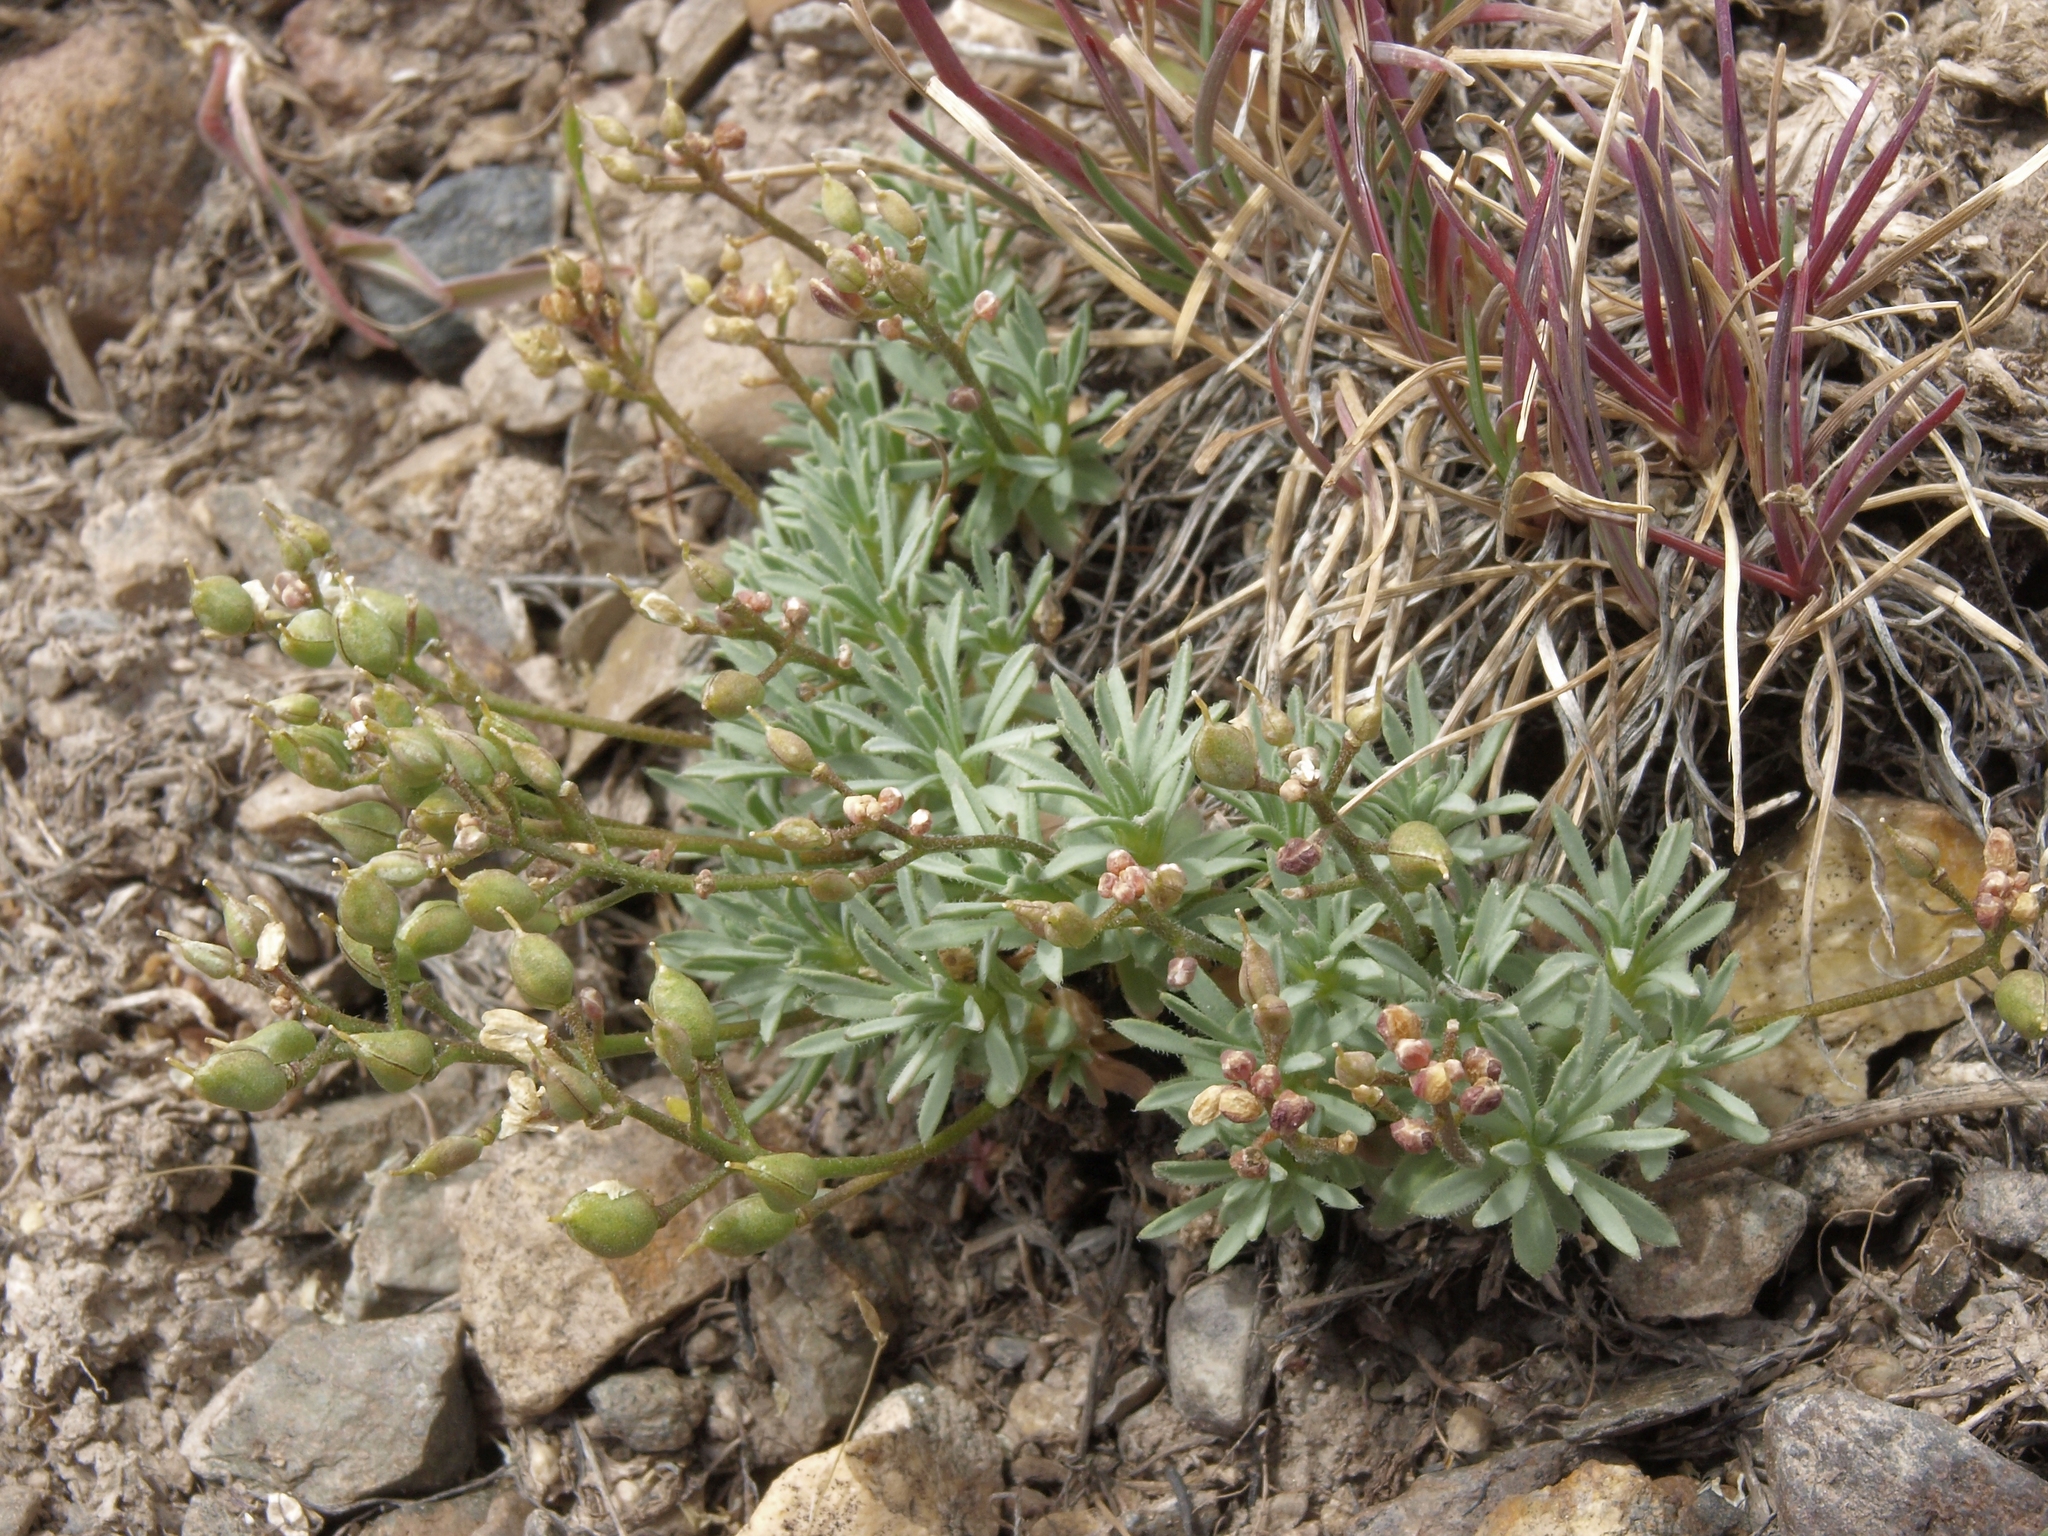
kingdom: Plantae
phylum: Tracheophyta
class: Magnoliopsida
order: Brassicales
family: Brassicaceae
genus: Cusickiella
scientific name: Cusickiella douglasii
